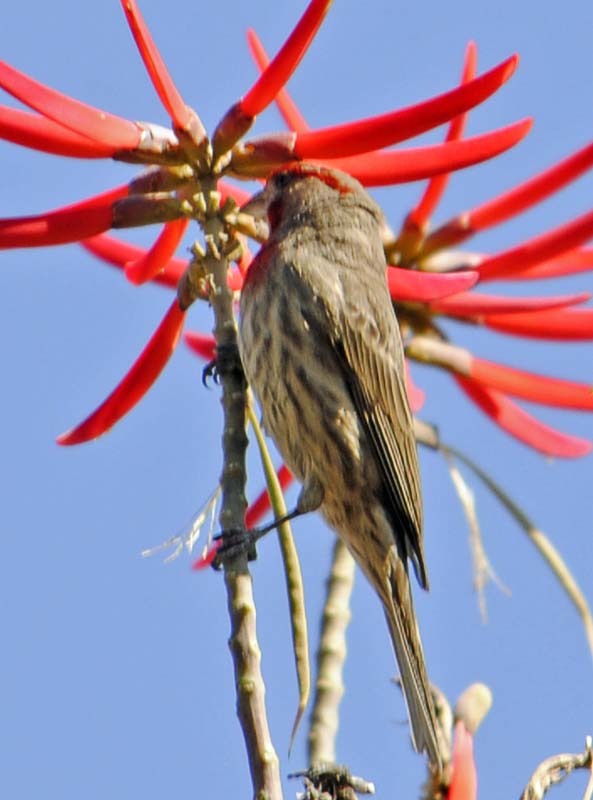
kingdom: Animalia
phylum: Chordata
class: Aves
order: Passeriformes
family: Fringillidae
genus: Haemorhous
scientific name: Haemorhous mexicanus
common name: House finch
